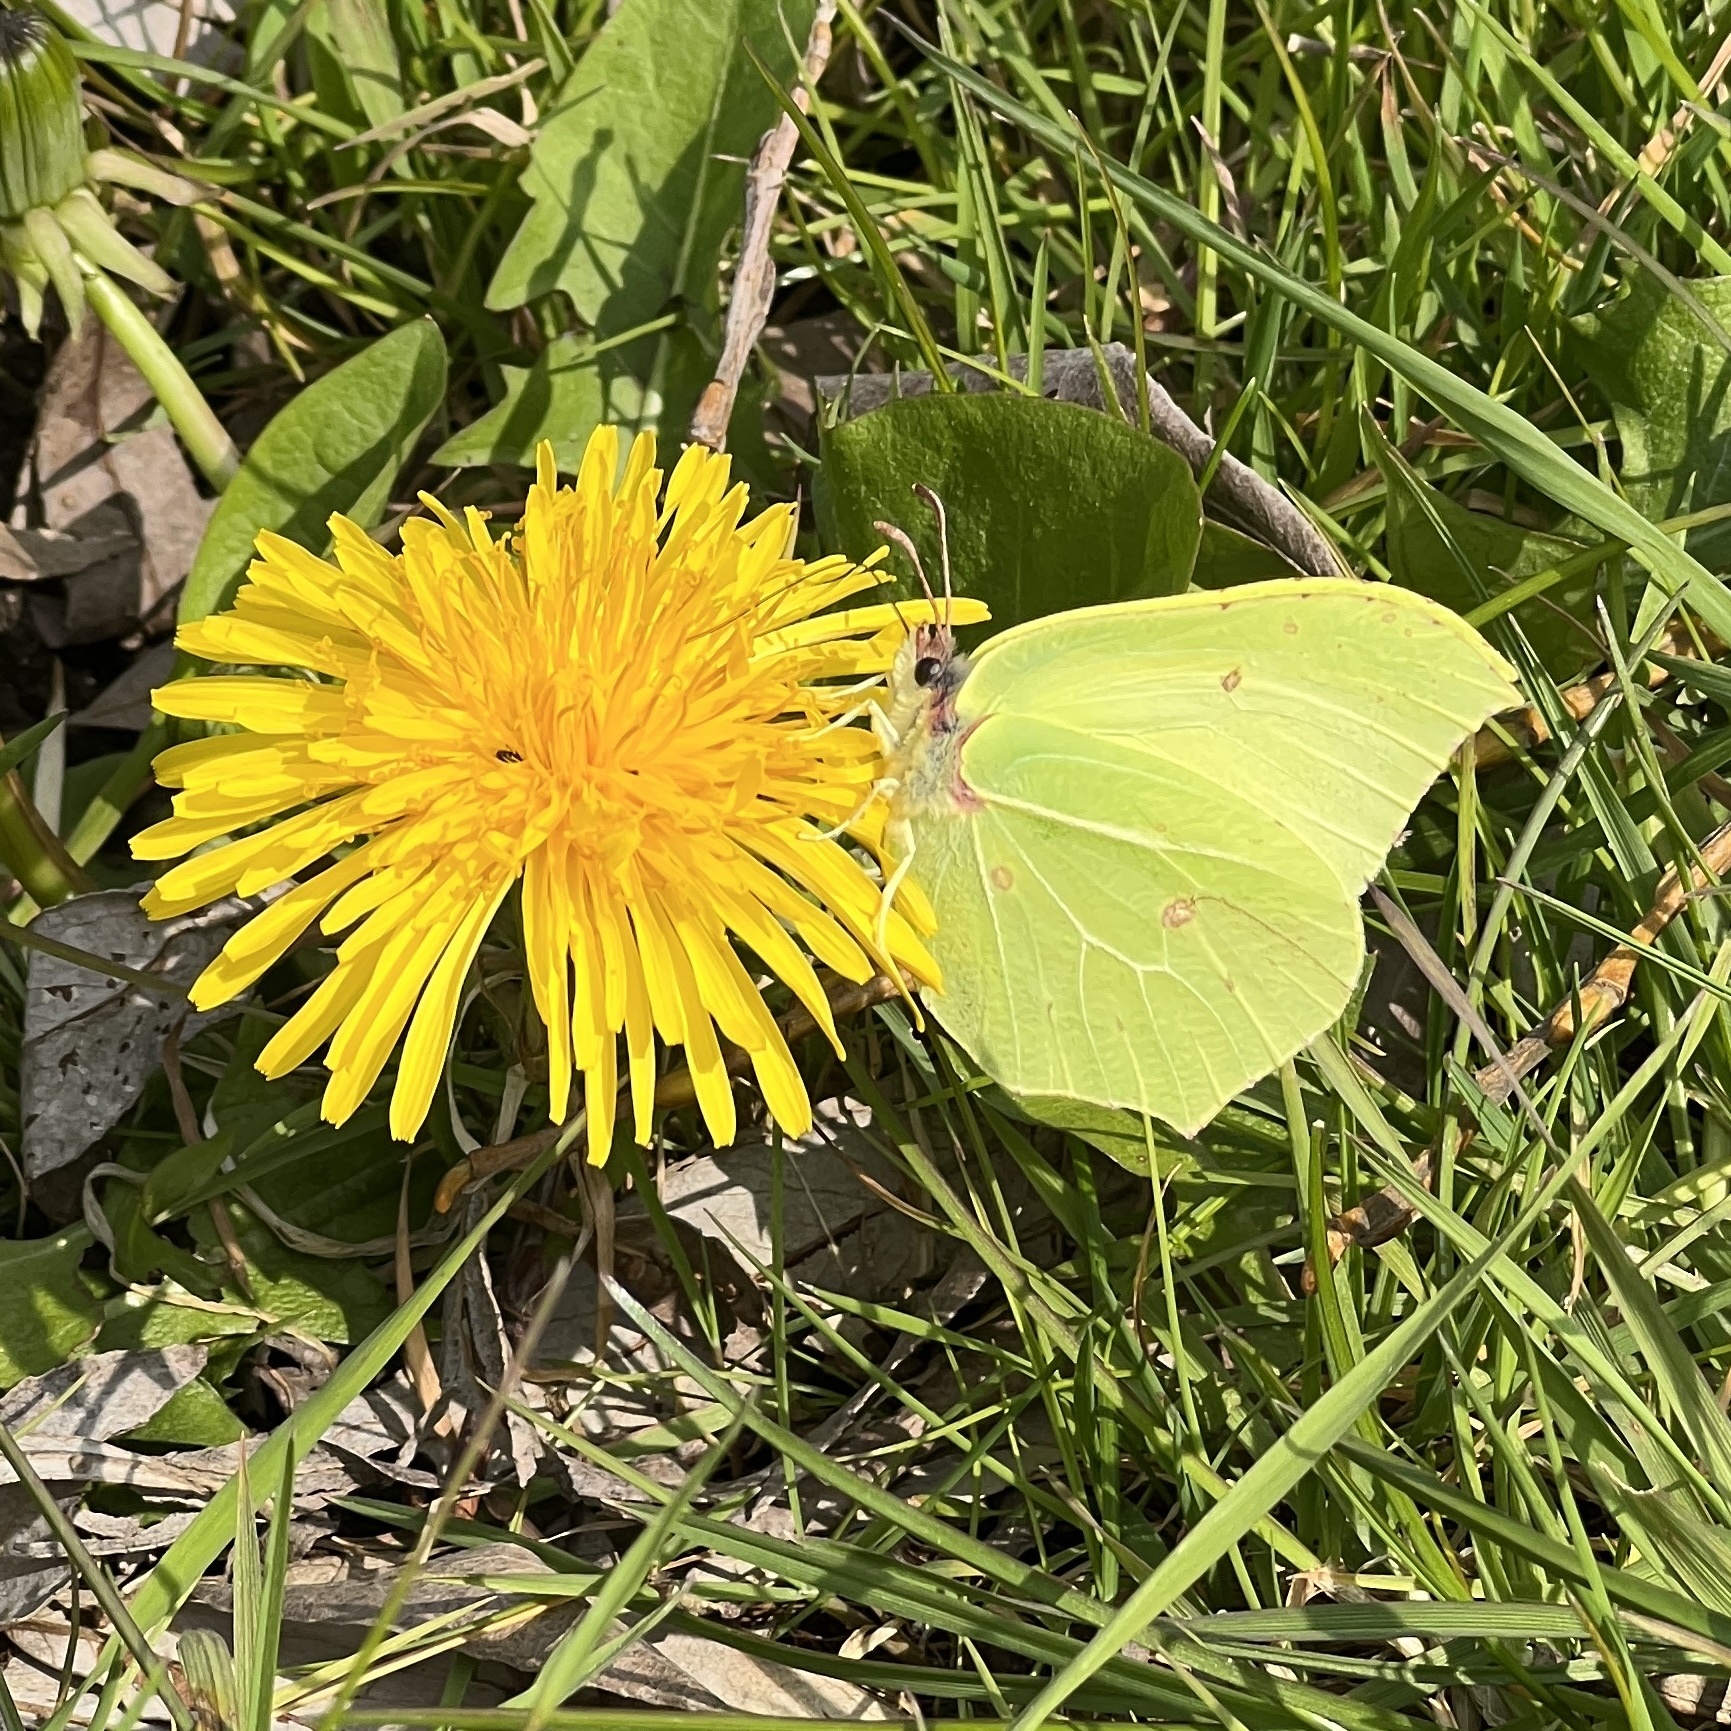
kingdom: Animalia
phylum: Arthropoda
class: Insecta
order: Lepidoptera
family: Pieridae
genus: Gonepteryx
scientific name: Gonepteryx rhamni
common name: Brimstone
